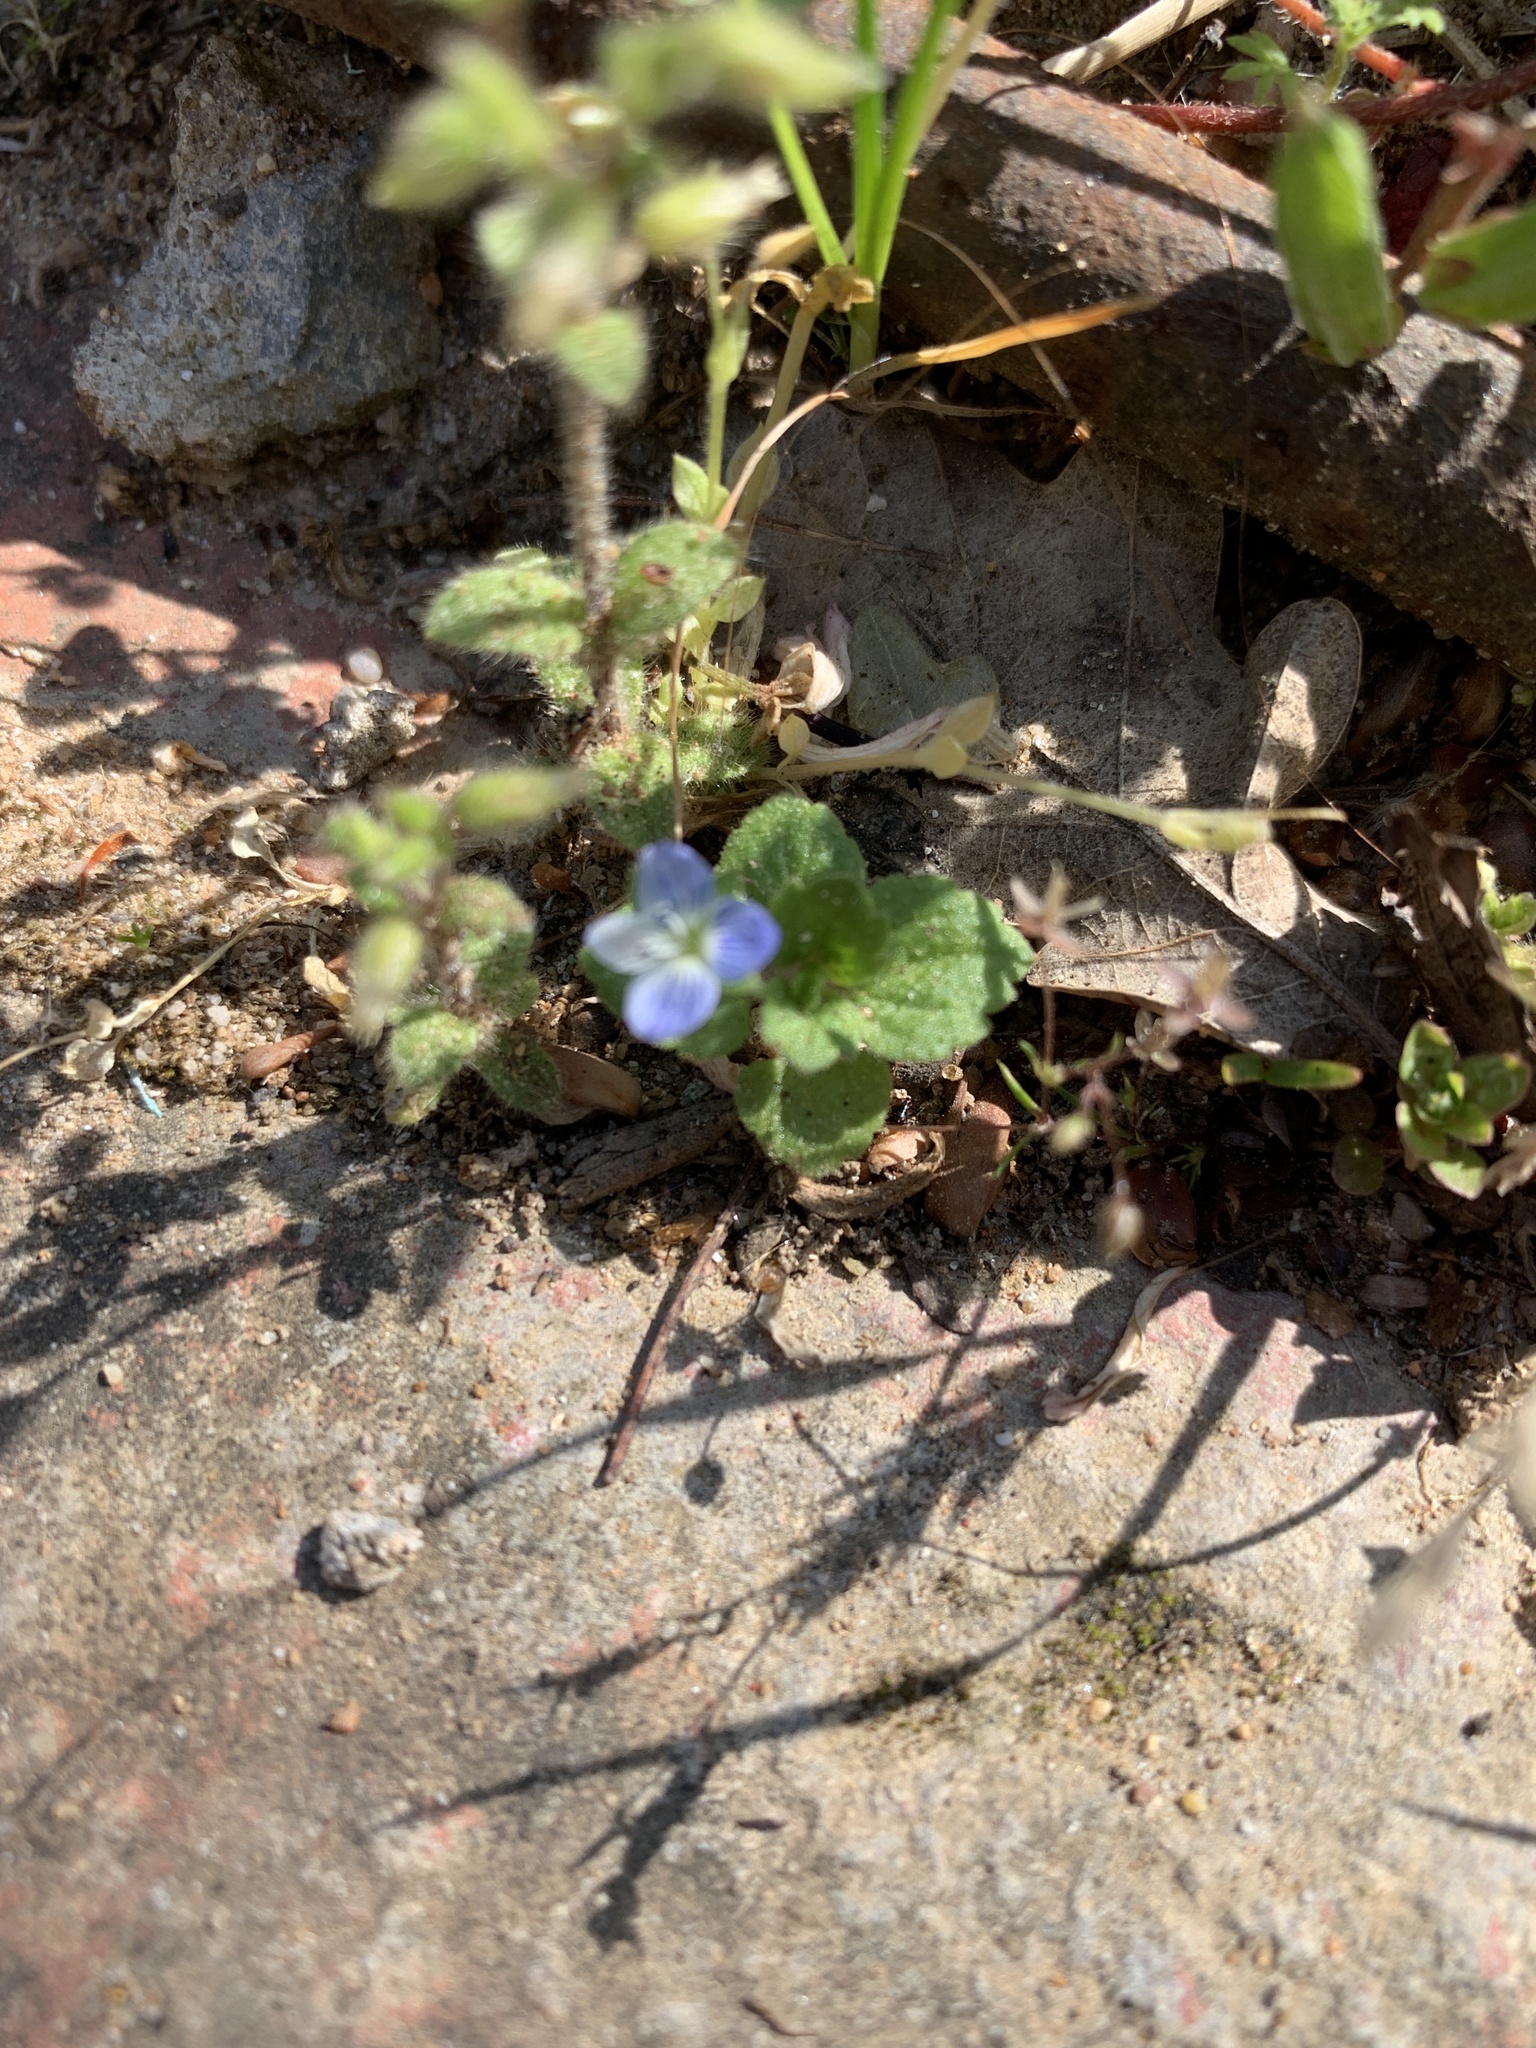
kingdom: Plantae
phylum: Tracheophyta
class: Magnoliopsida
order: Lamiales
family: Plantaginaceae
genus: Veronica
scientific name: Veronica persica
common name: Common field-speedwell
